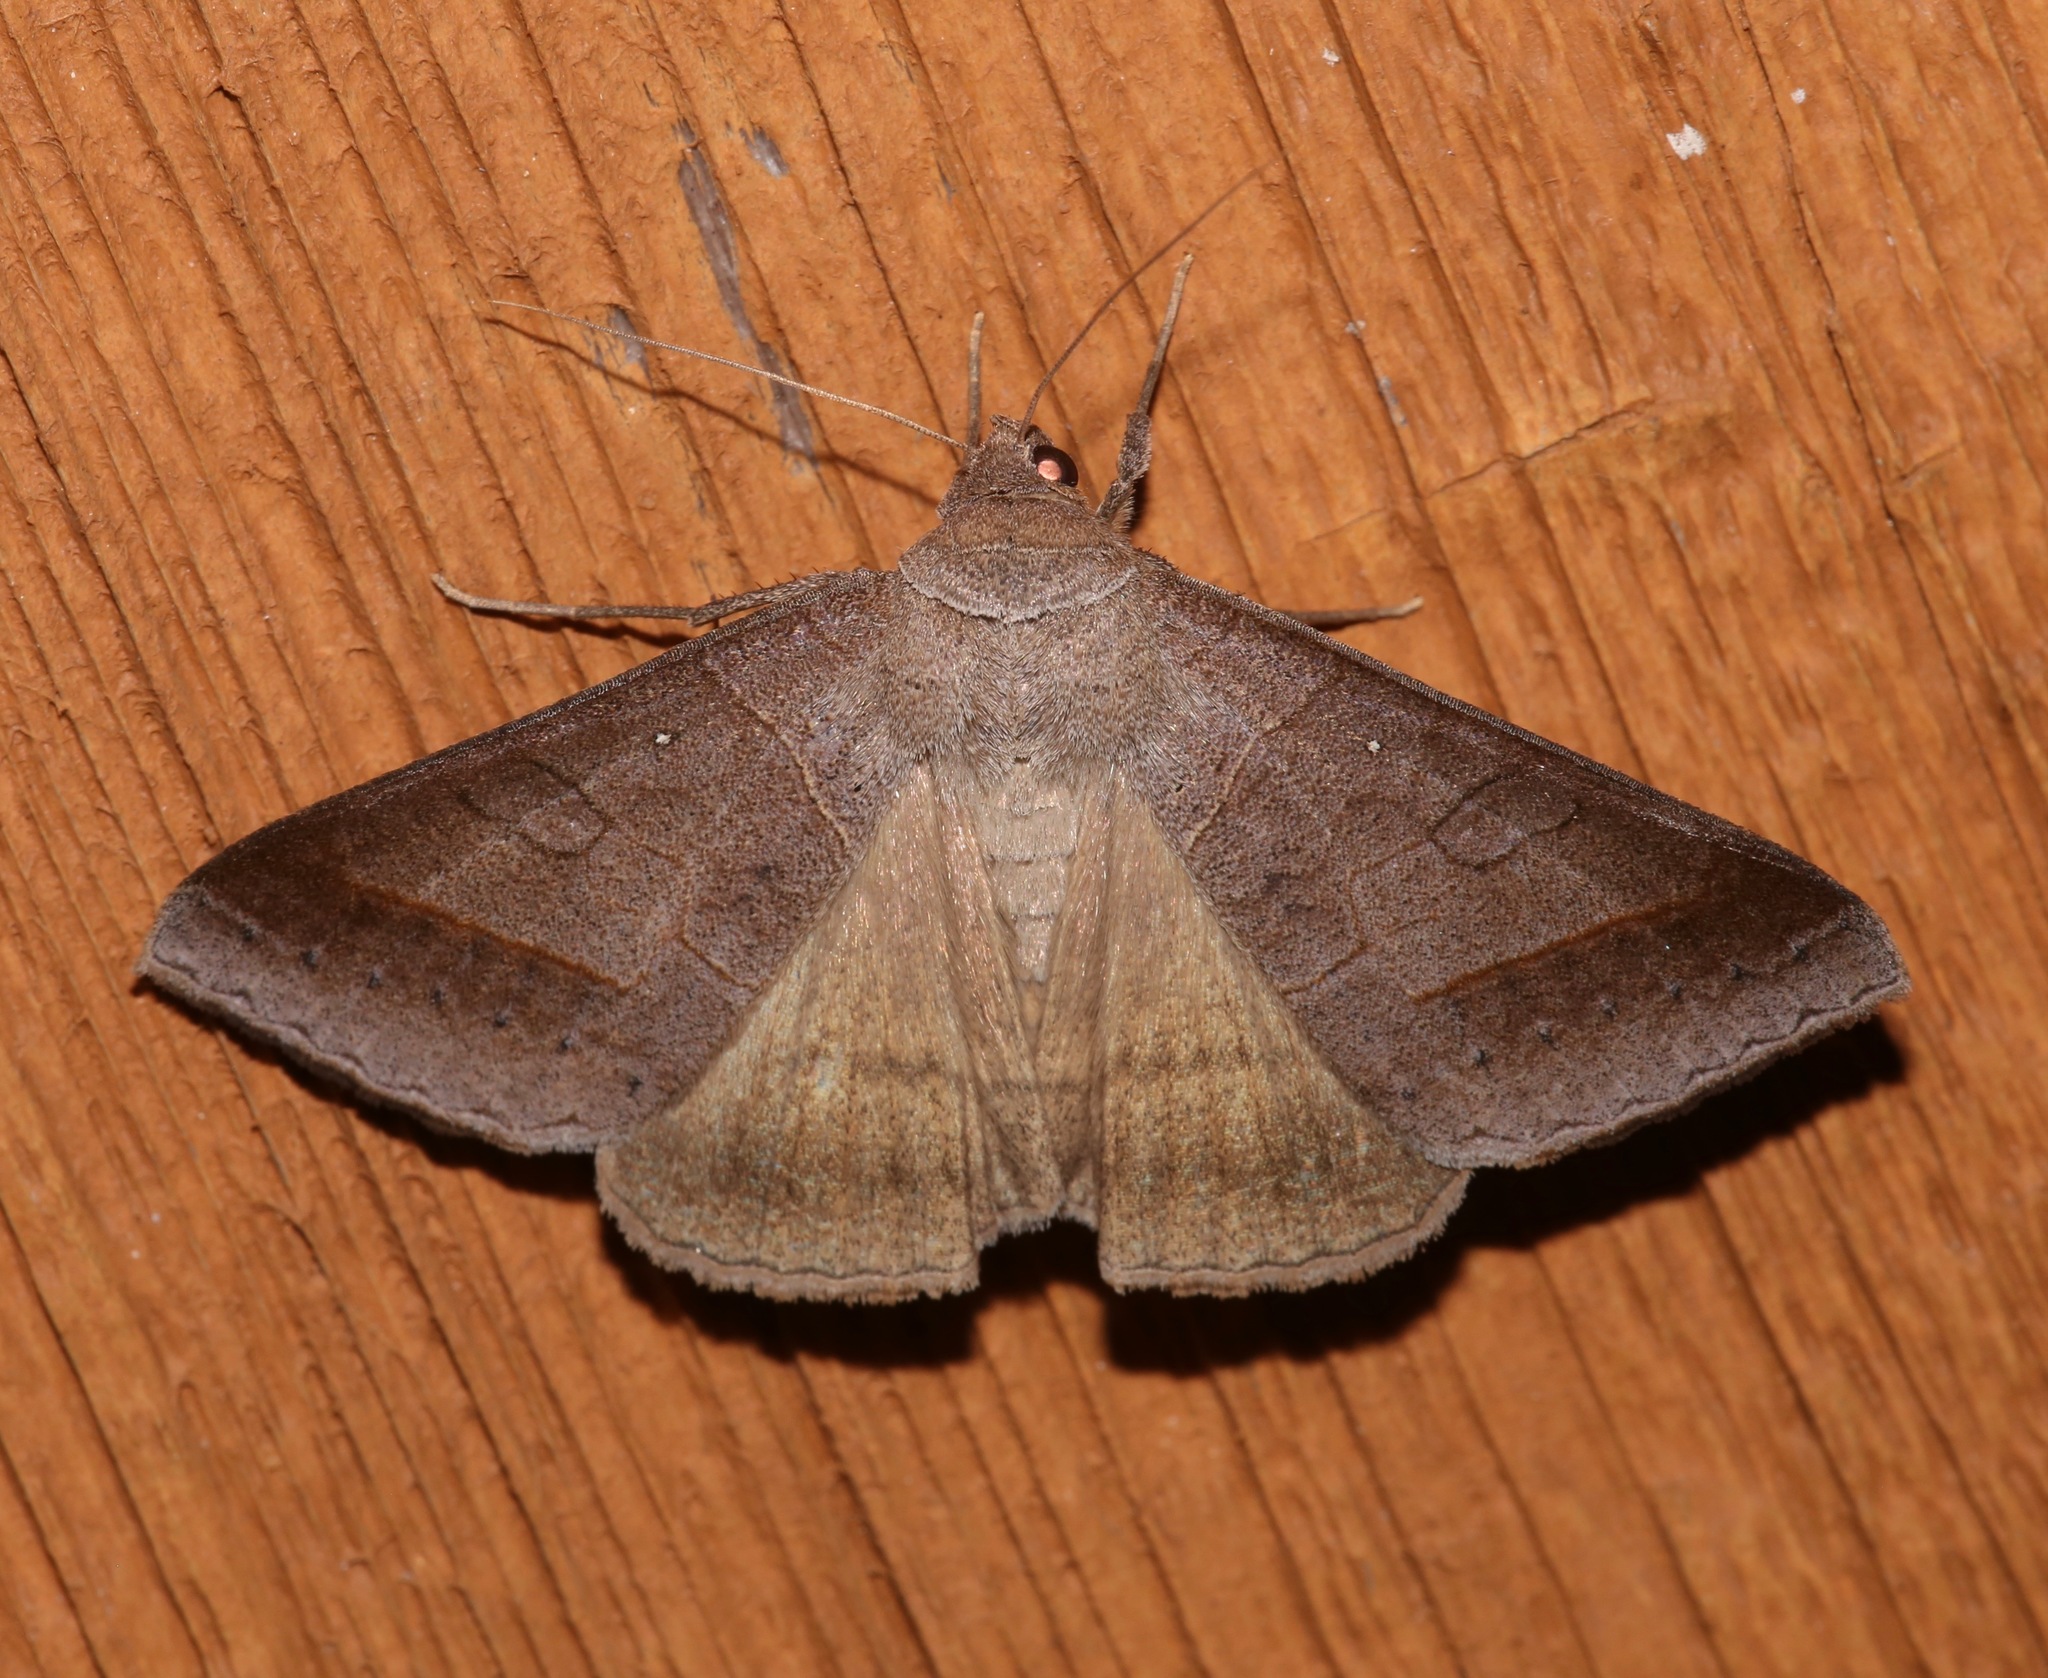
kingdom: Animalia
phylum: Arthropoda
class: Insecta
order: Lepidoptera
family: Erebidae
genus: Mocis
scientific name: Mocis marcida
